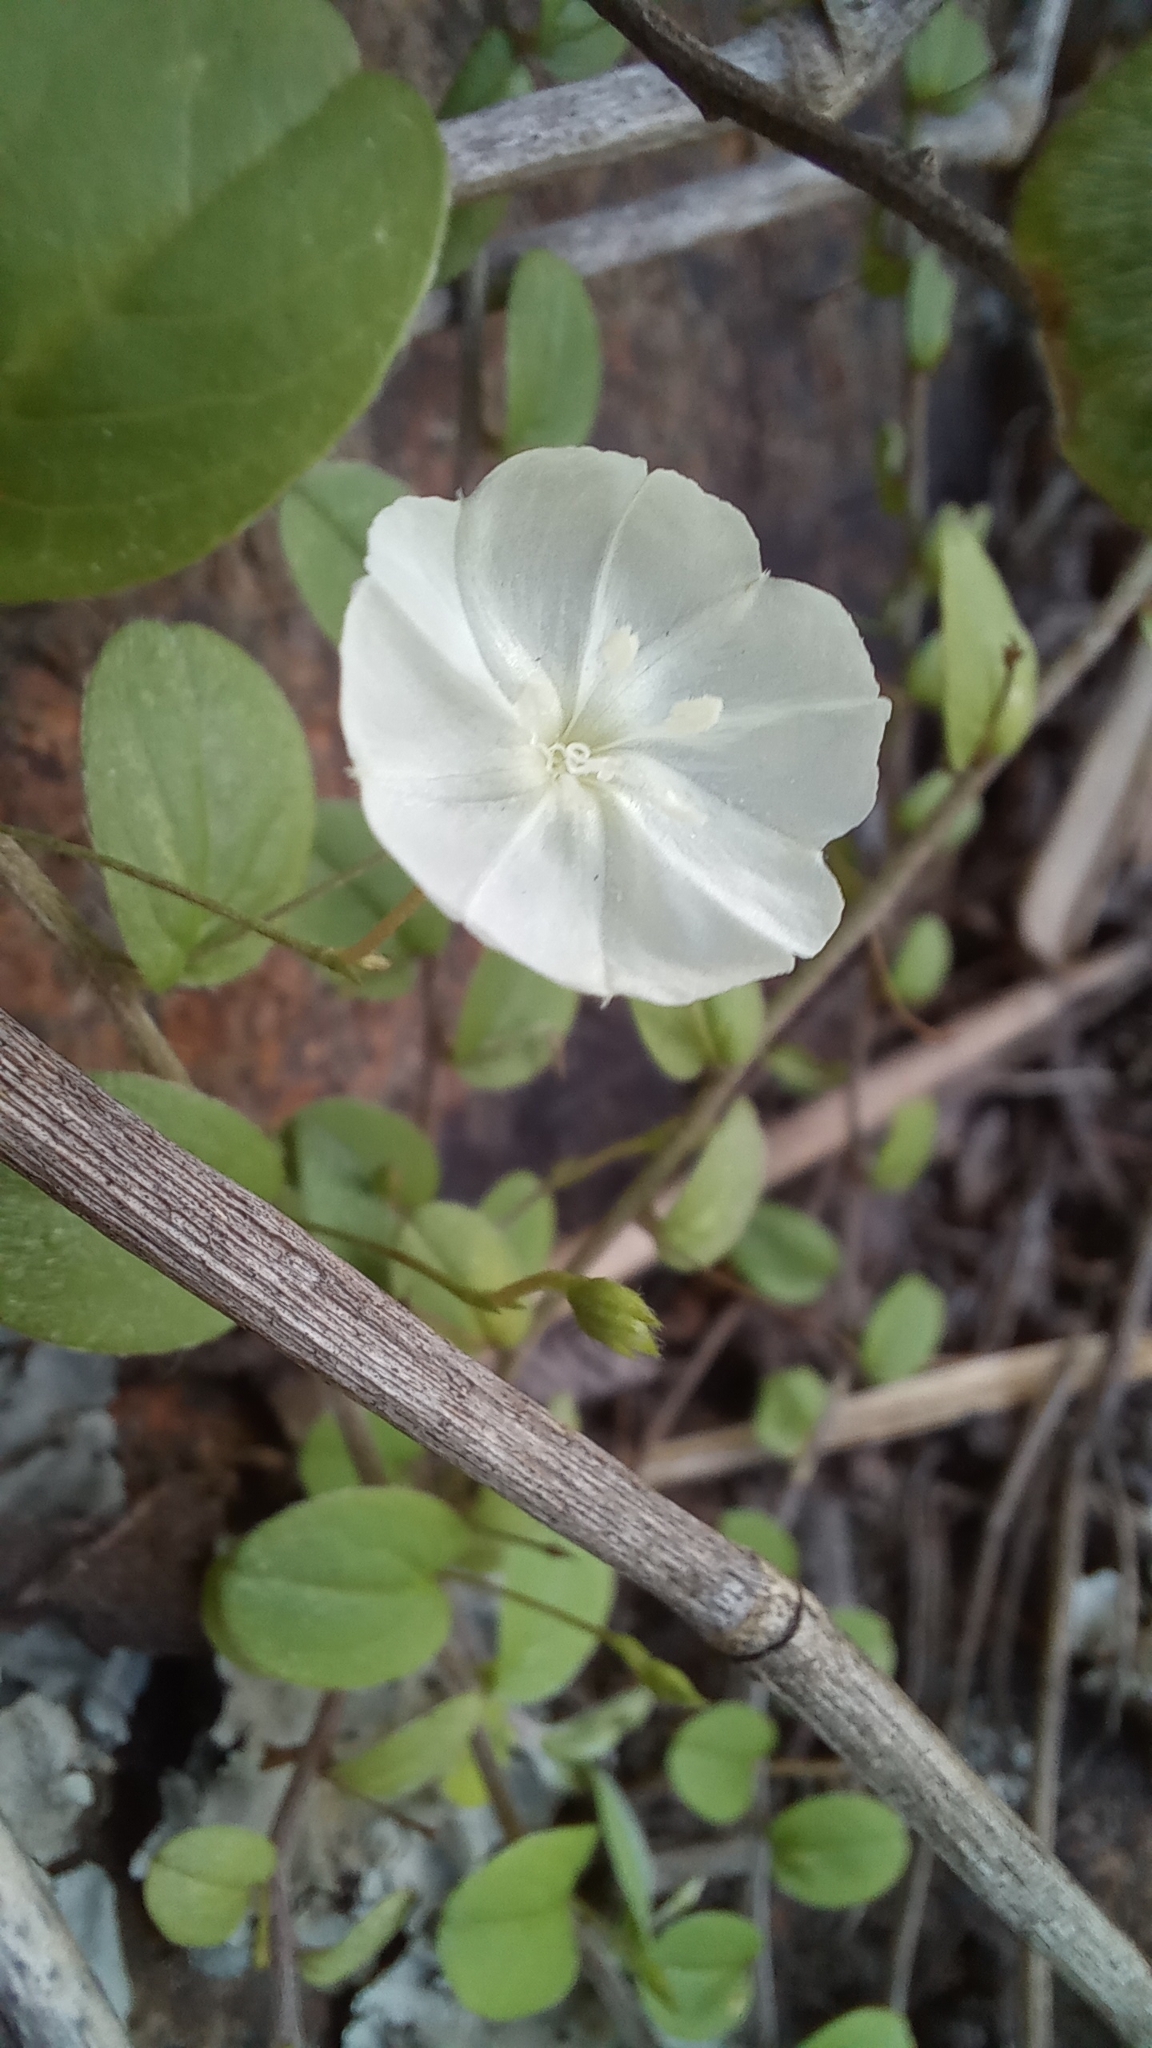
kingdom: Plantae
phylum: Tracheophyta
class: Magnoliopsida
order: Solanales
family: Convolvulaceae
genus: Evolvulus
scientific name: Evolvulus pusillus
